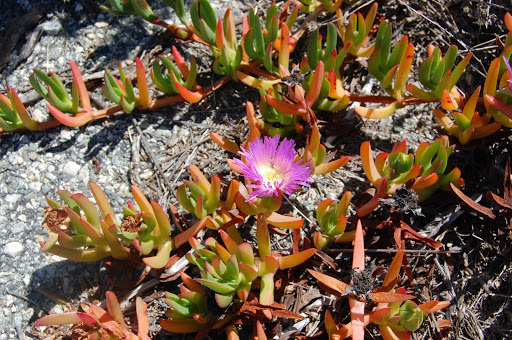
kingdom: Plantae
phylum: Tracheophyta
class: Magnoliopsida
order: Caryophyllales
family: Aizoaceae
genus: Carpobrotus
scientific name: Carpobrotus chilensis
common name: Sea fig
